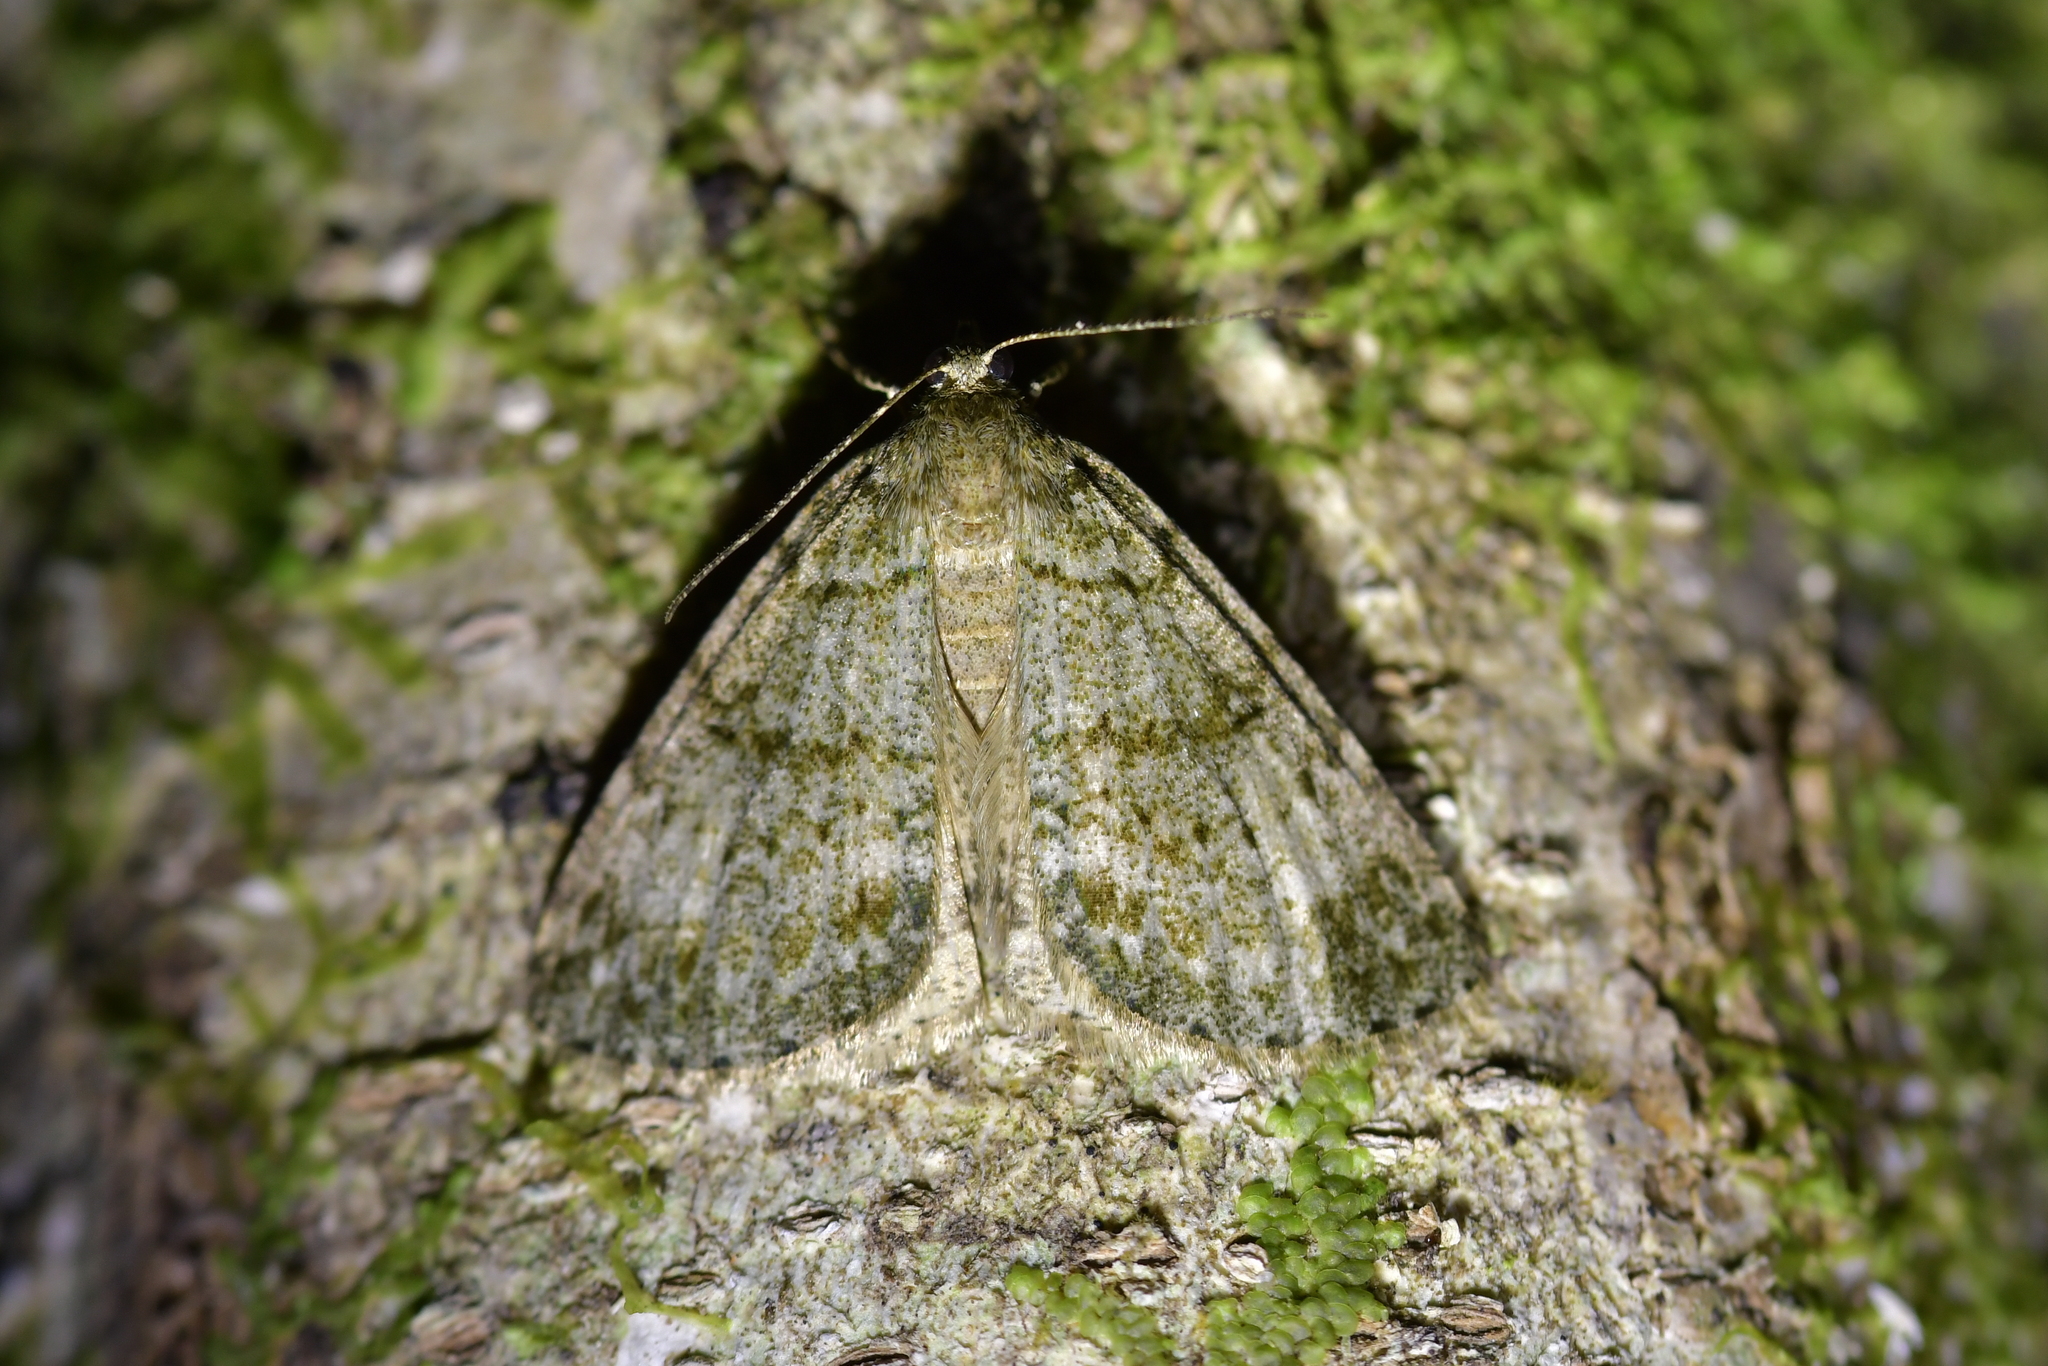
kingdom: Animalia
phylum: Arthropoda
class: Insecta
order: Lepidoptera
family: Geometridae
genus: Pseudocoremia
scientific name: Pseudocoremia indistincta
